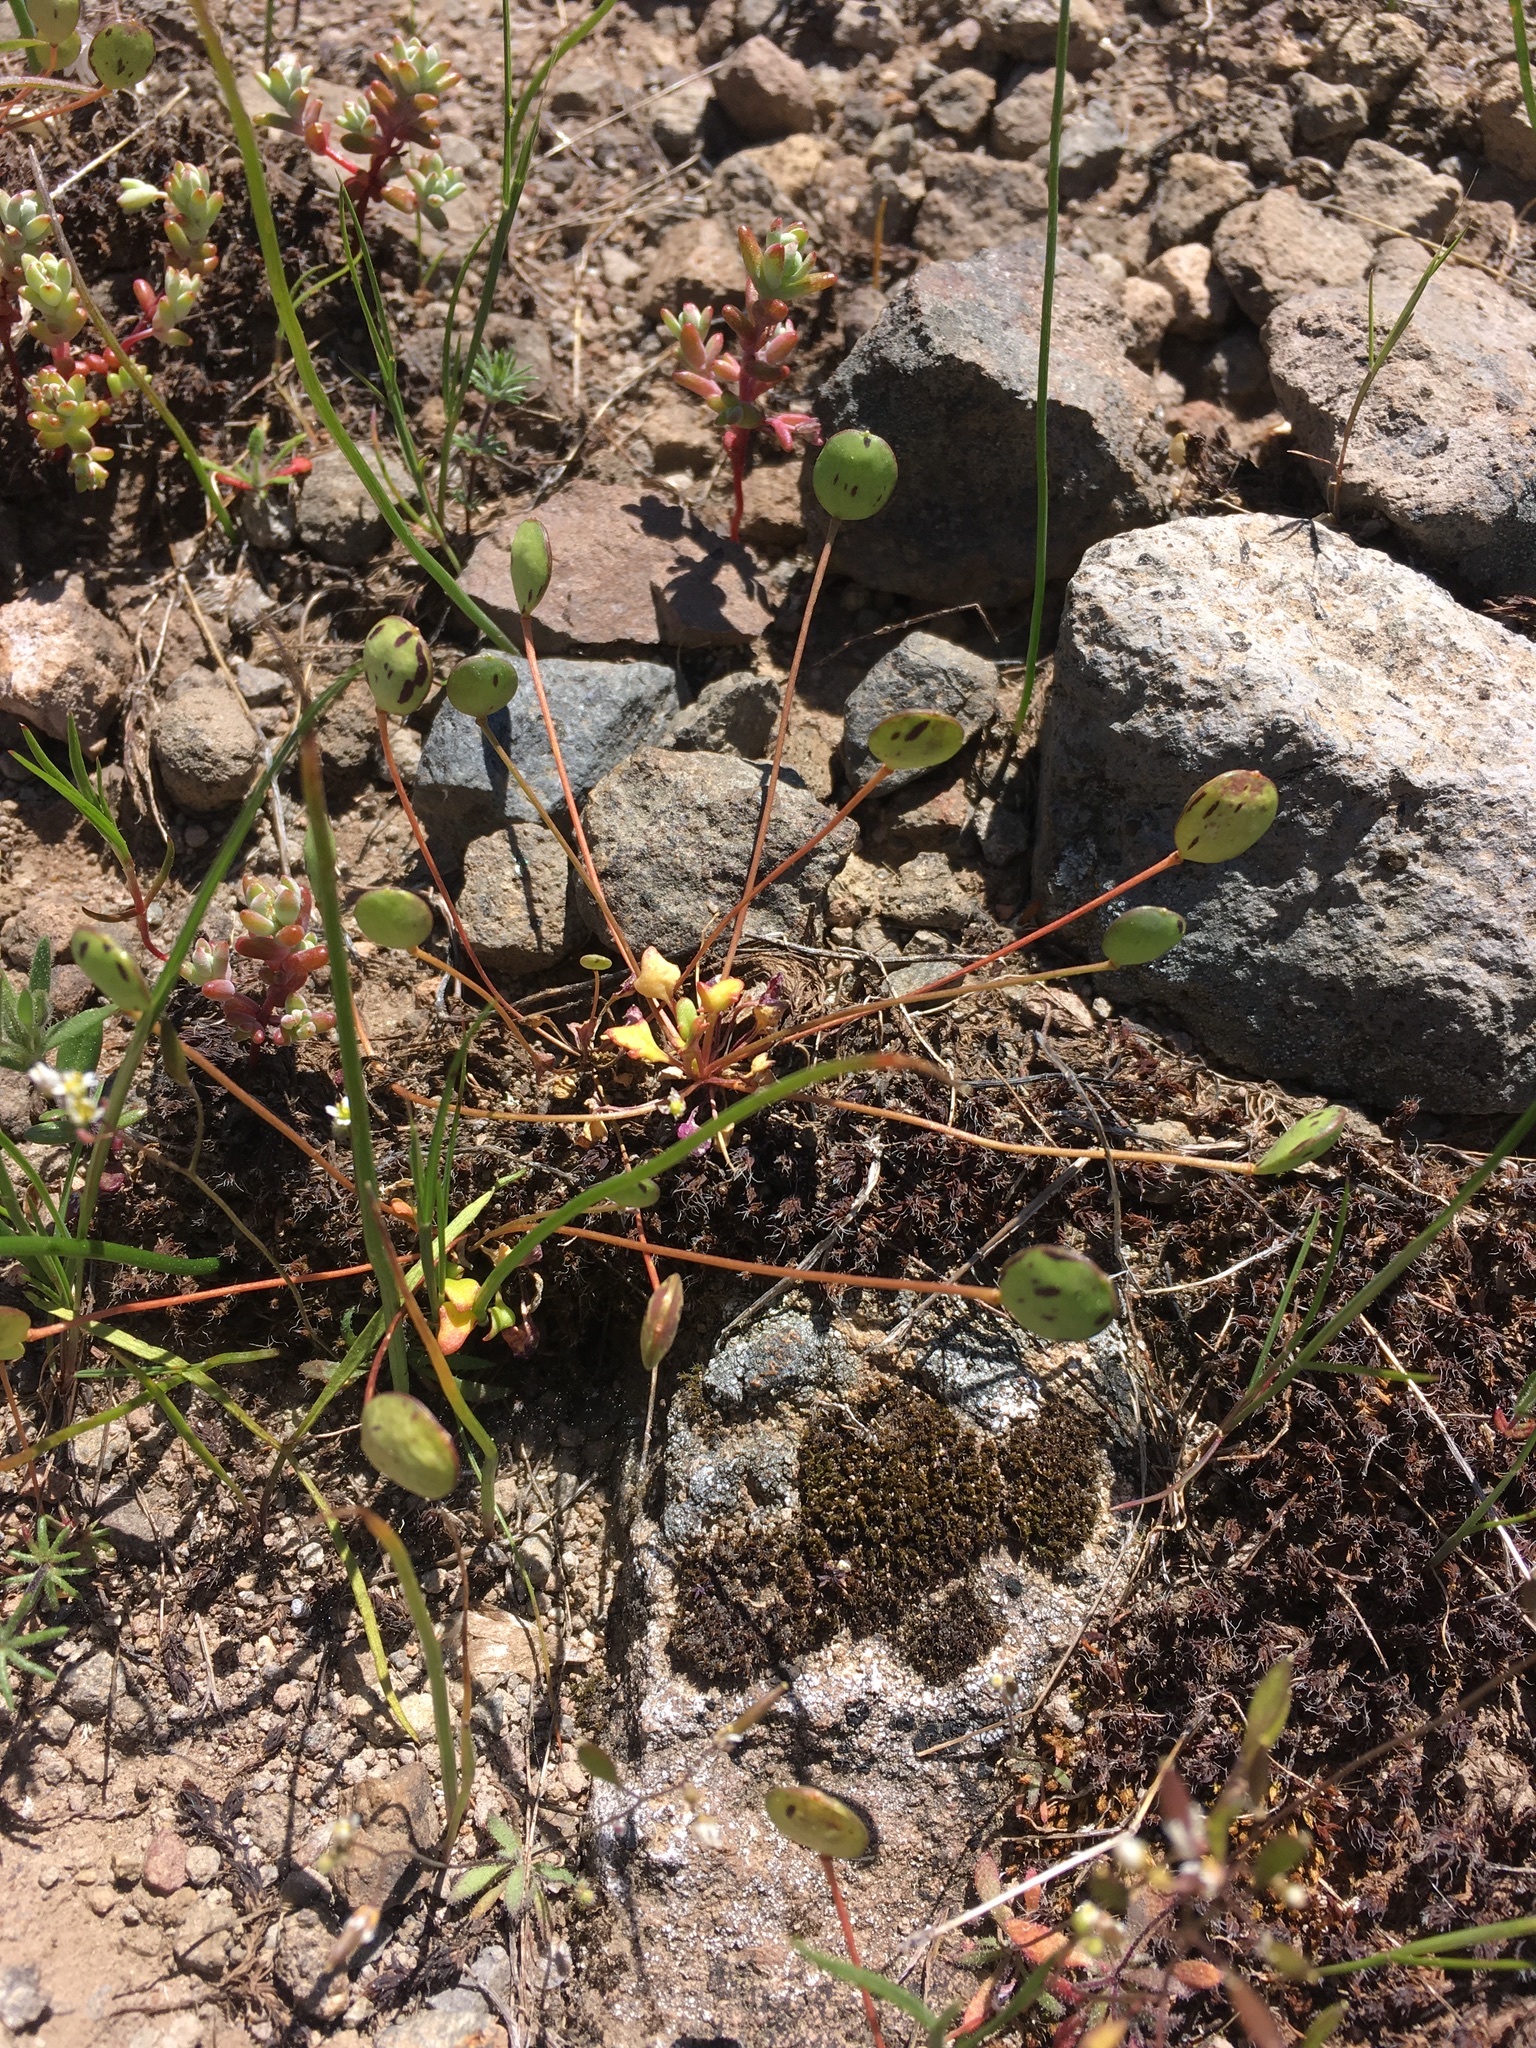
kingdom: Plantae
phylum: Tracheophyta
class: Magnoliopsida
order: Brassicales
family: Brassicaceae
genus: Idahoa
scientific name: Idahoa scapigera
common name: Scalepod
